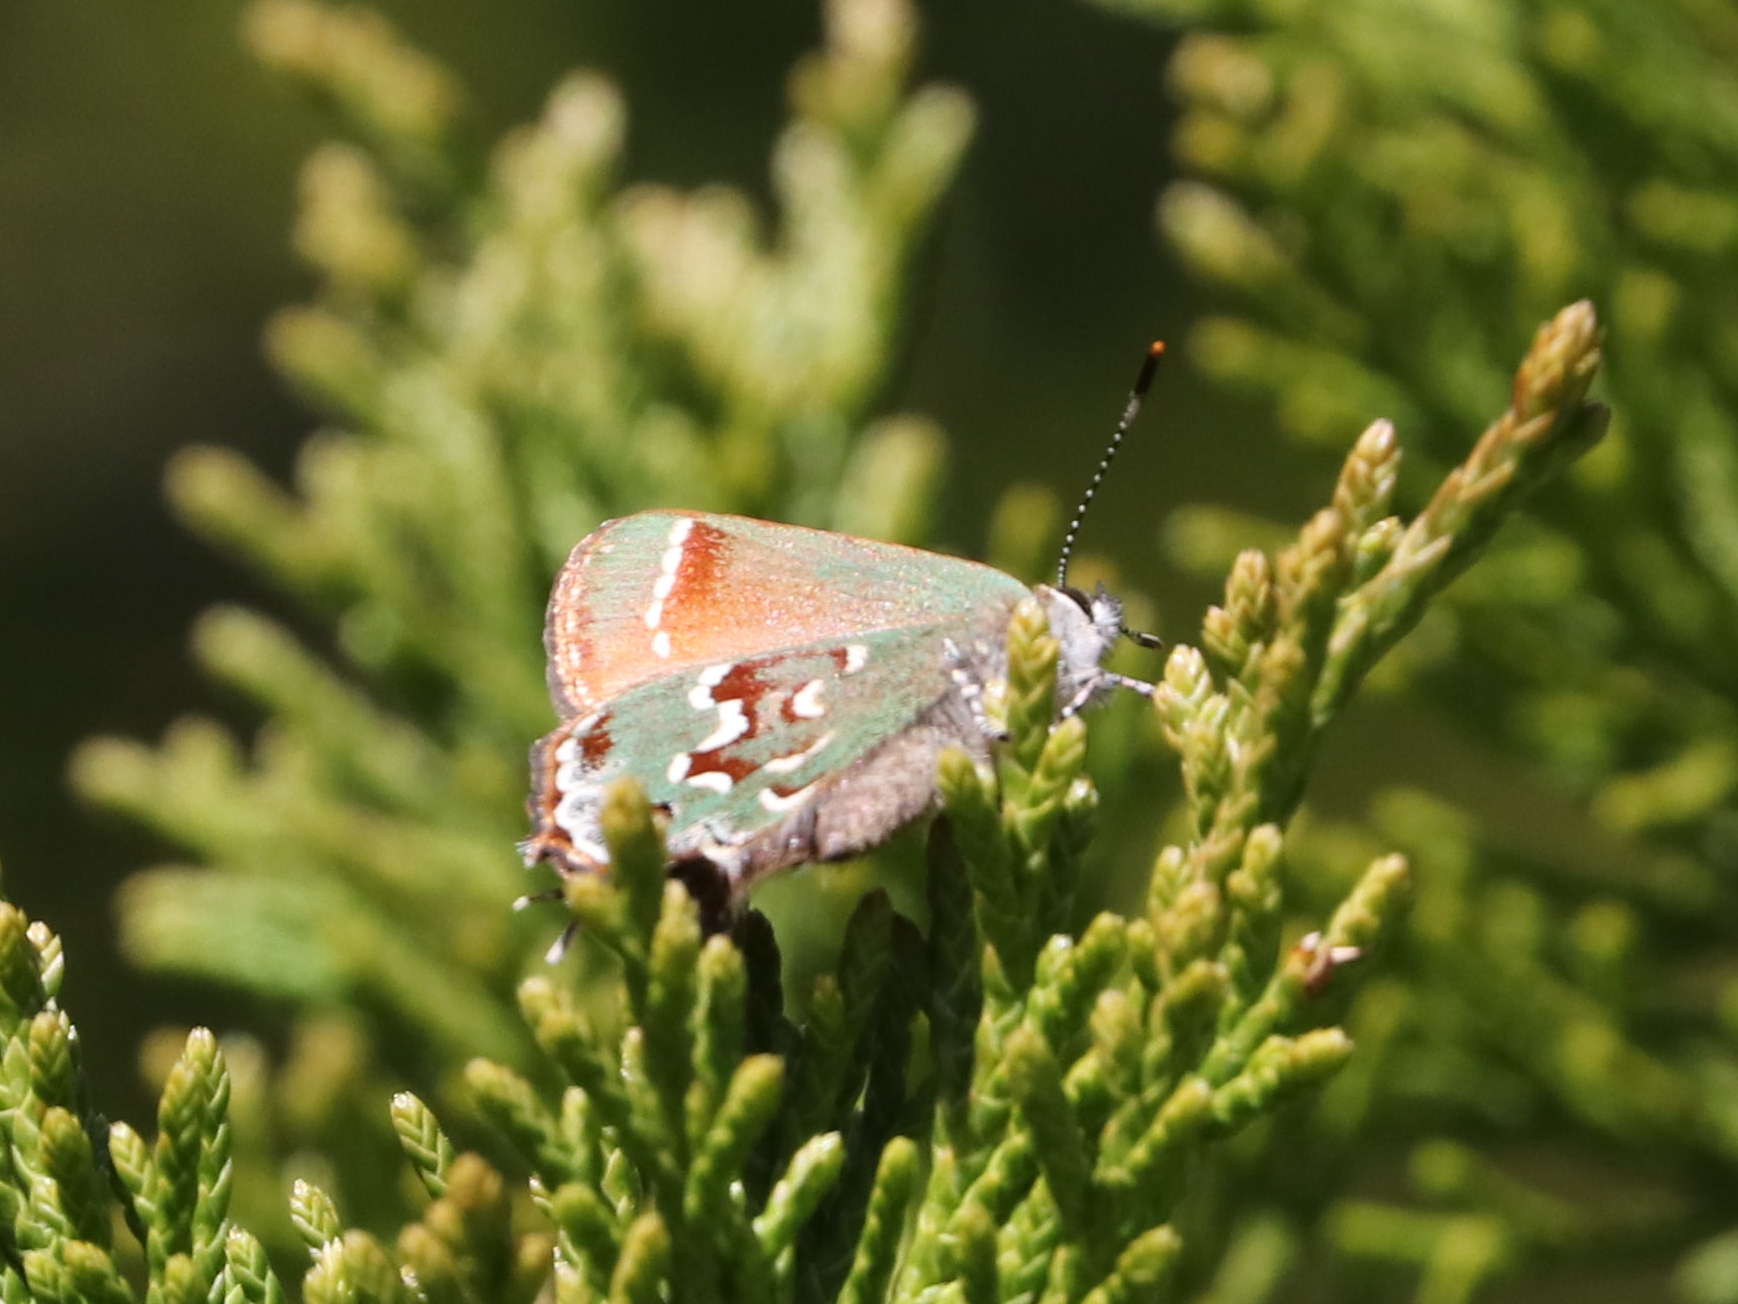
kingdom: Animalia
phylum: Arthropoda
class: Insecta
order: Lepidoptera
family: Lycaenidae
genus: Mitoura
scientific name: Mitoura gryneus
